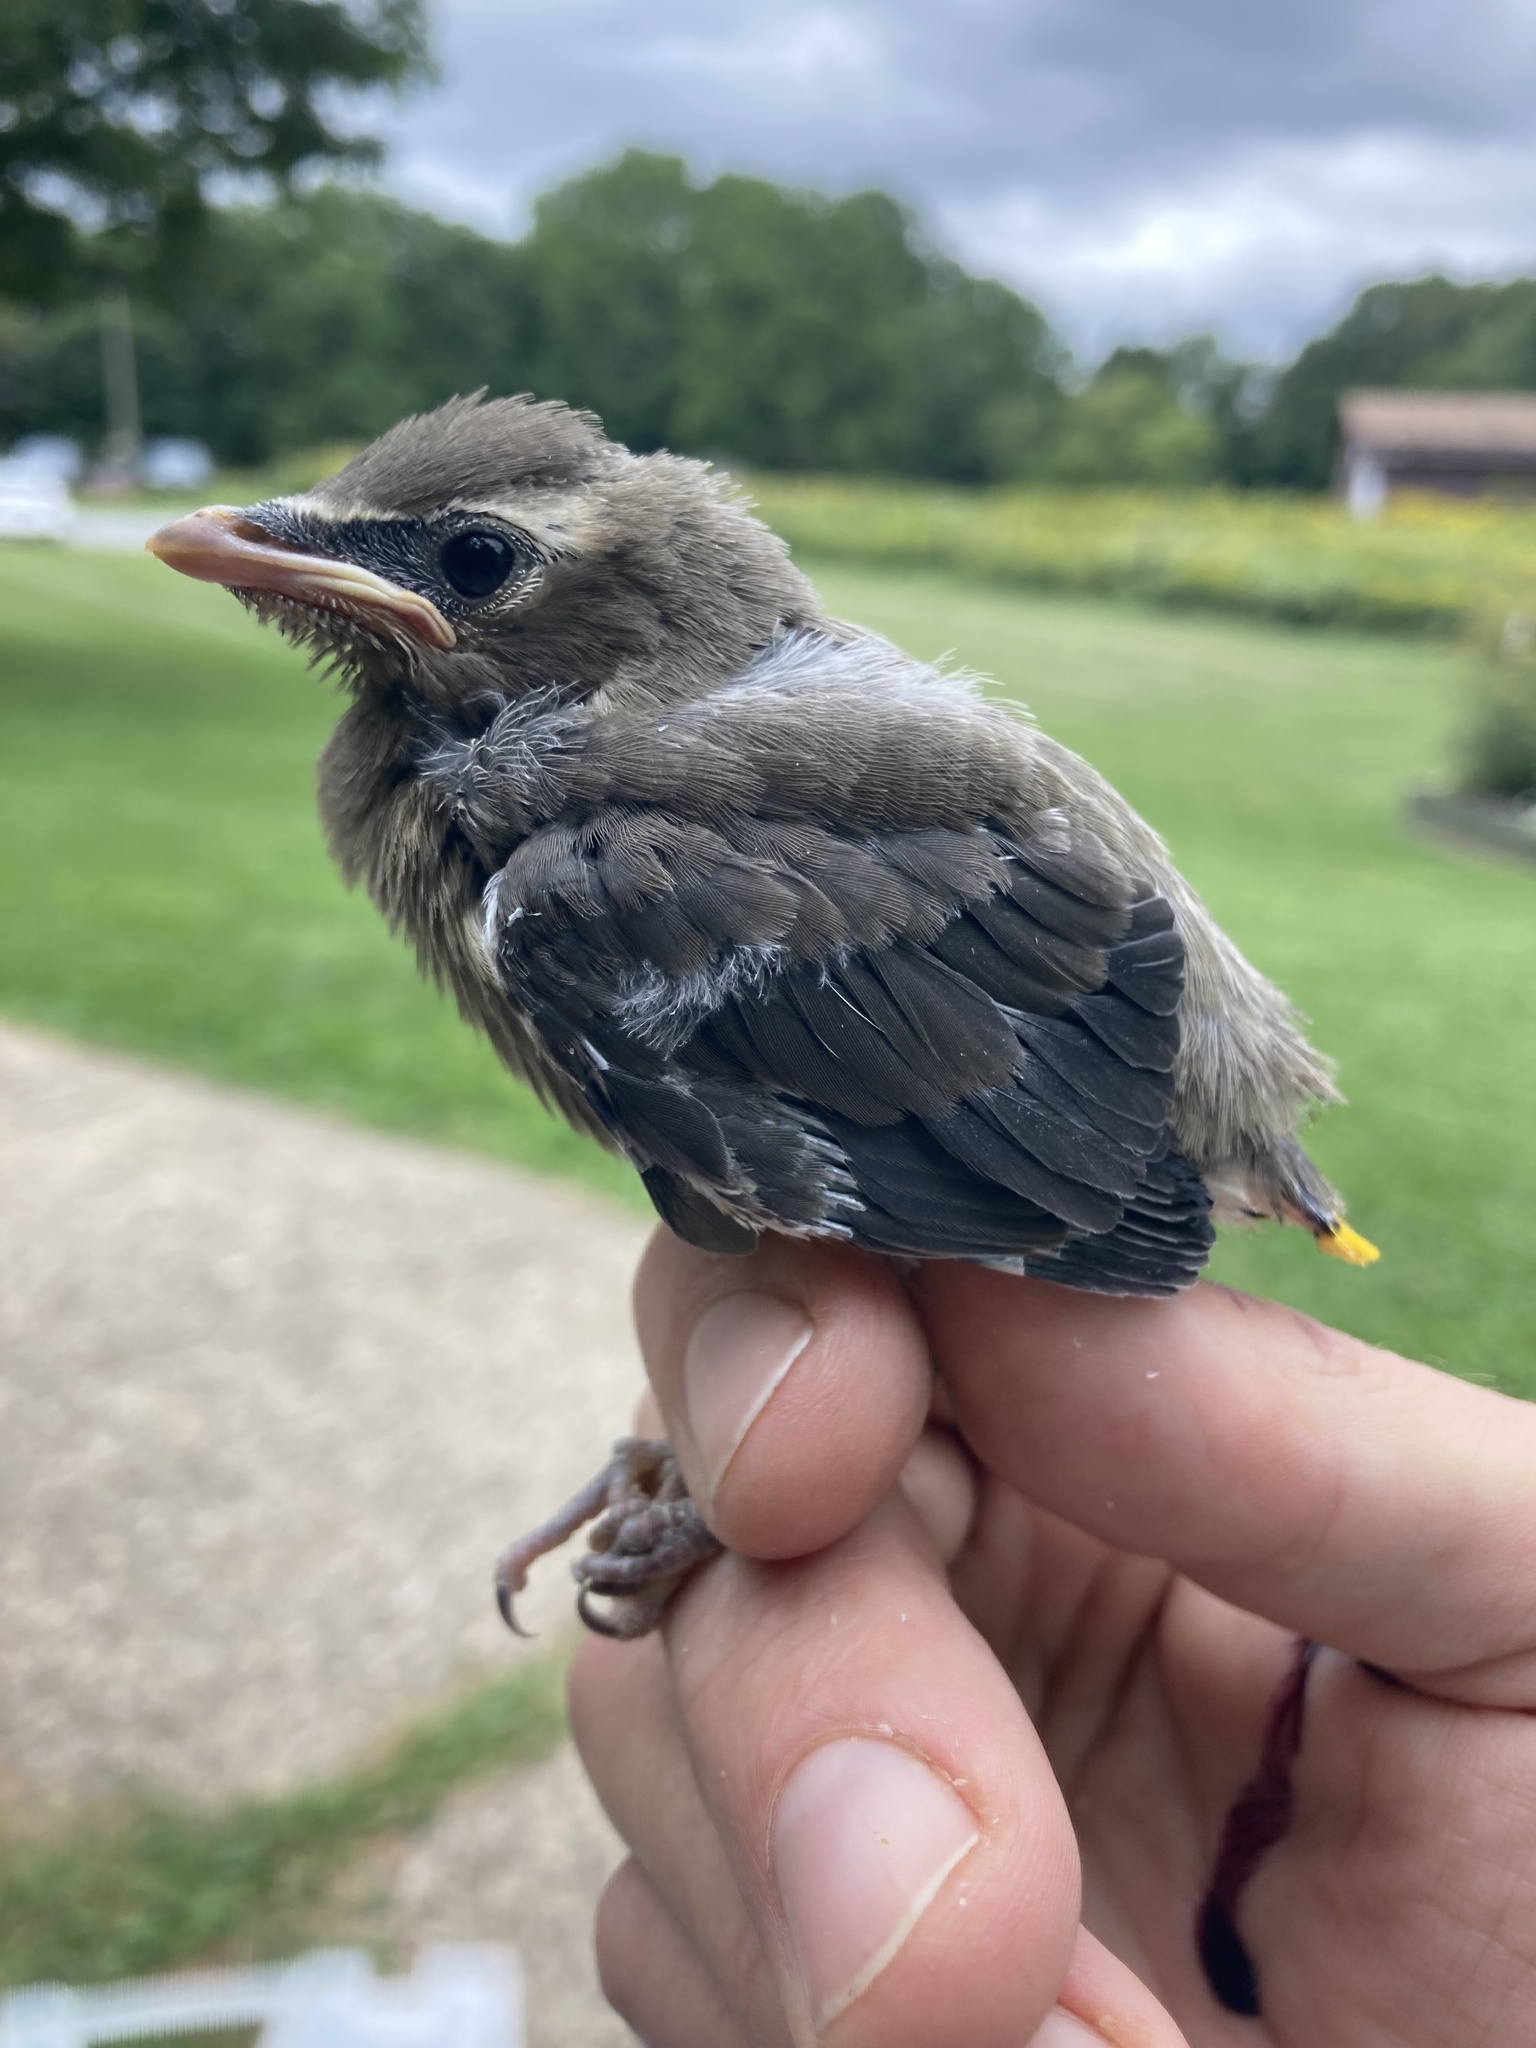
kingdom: Animalia
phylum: Chordata
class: Aves
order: Passeriformes
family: Bombycillidae
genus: Bombycilla
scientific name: Bombycilla cedrorum
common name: Cedar waxwing
